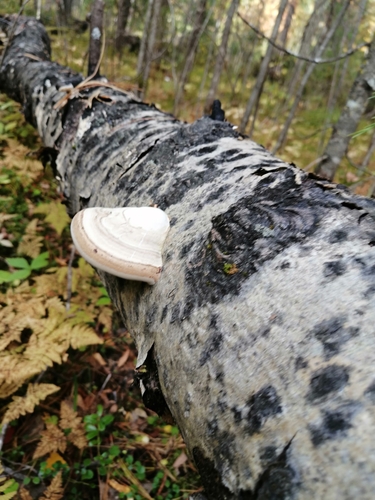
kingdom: Fungi
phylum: Basidiomycota
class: Agaricomycetes
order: Polyporales
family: Polyporaceae
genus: Fomes
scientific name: Fomes fomentarius
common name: Hoof fungus
